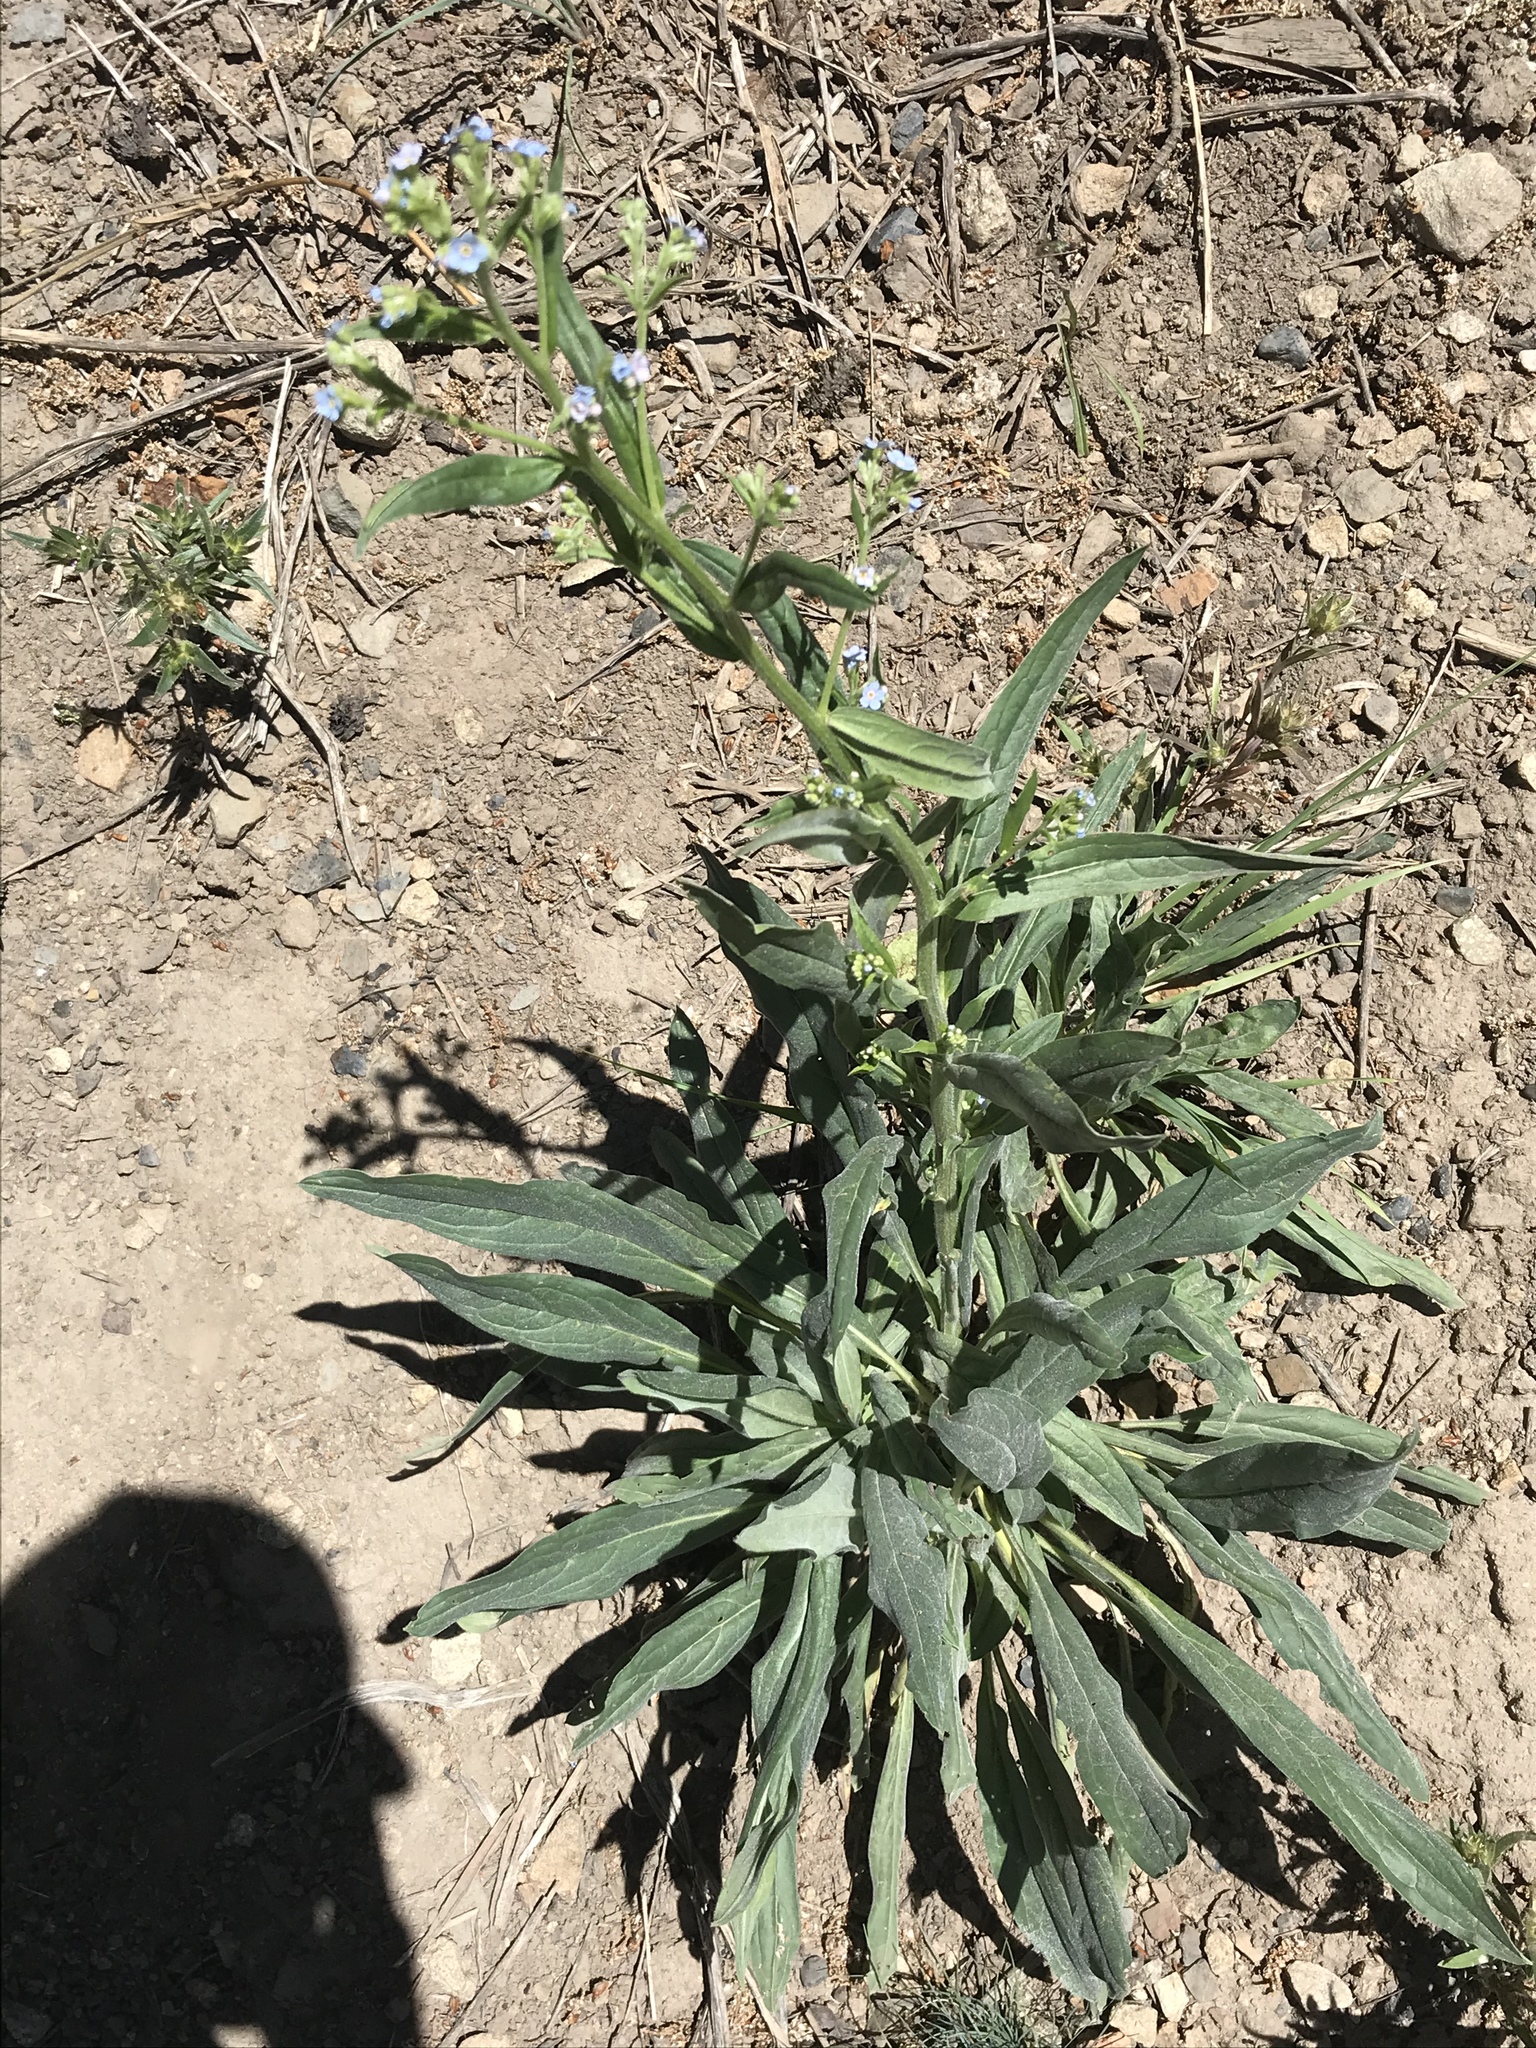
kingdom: Plantae
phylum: Tracheophyta
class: Magnoliopsida
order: Boraginales
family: Boraginaceae
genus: Hackelia
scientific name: Hackelia floribunda
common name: Large-flowered stickseed
